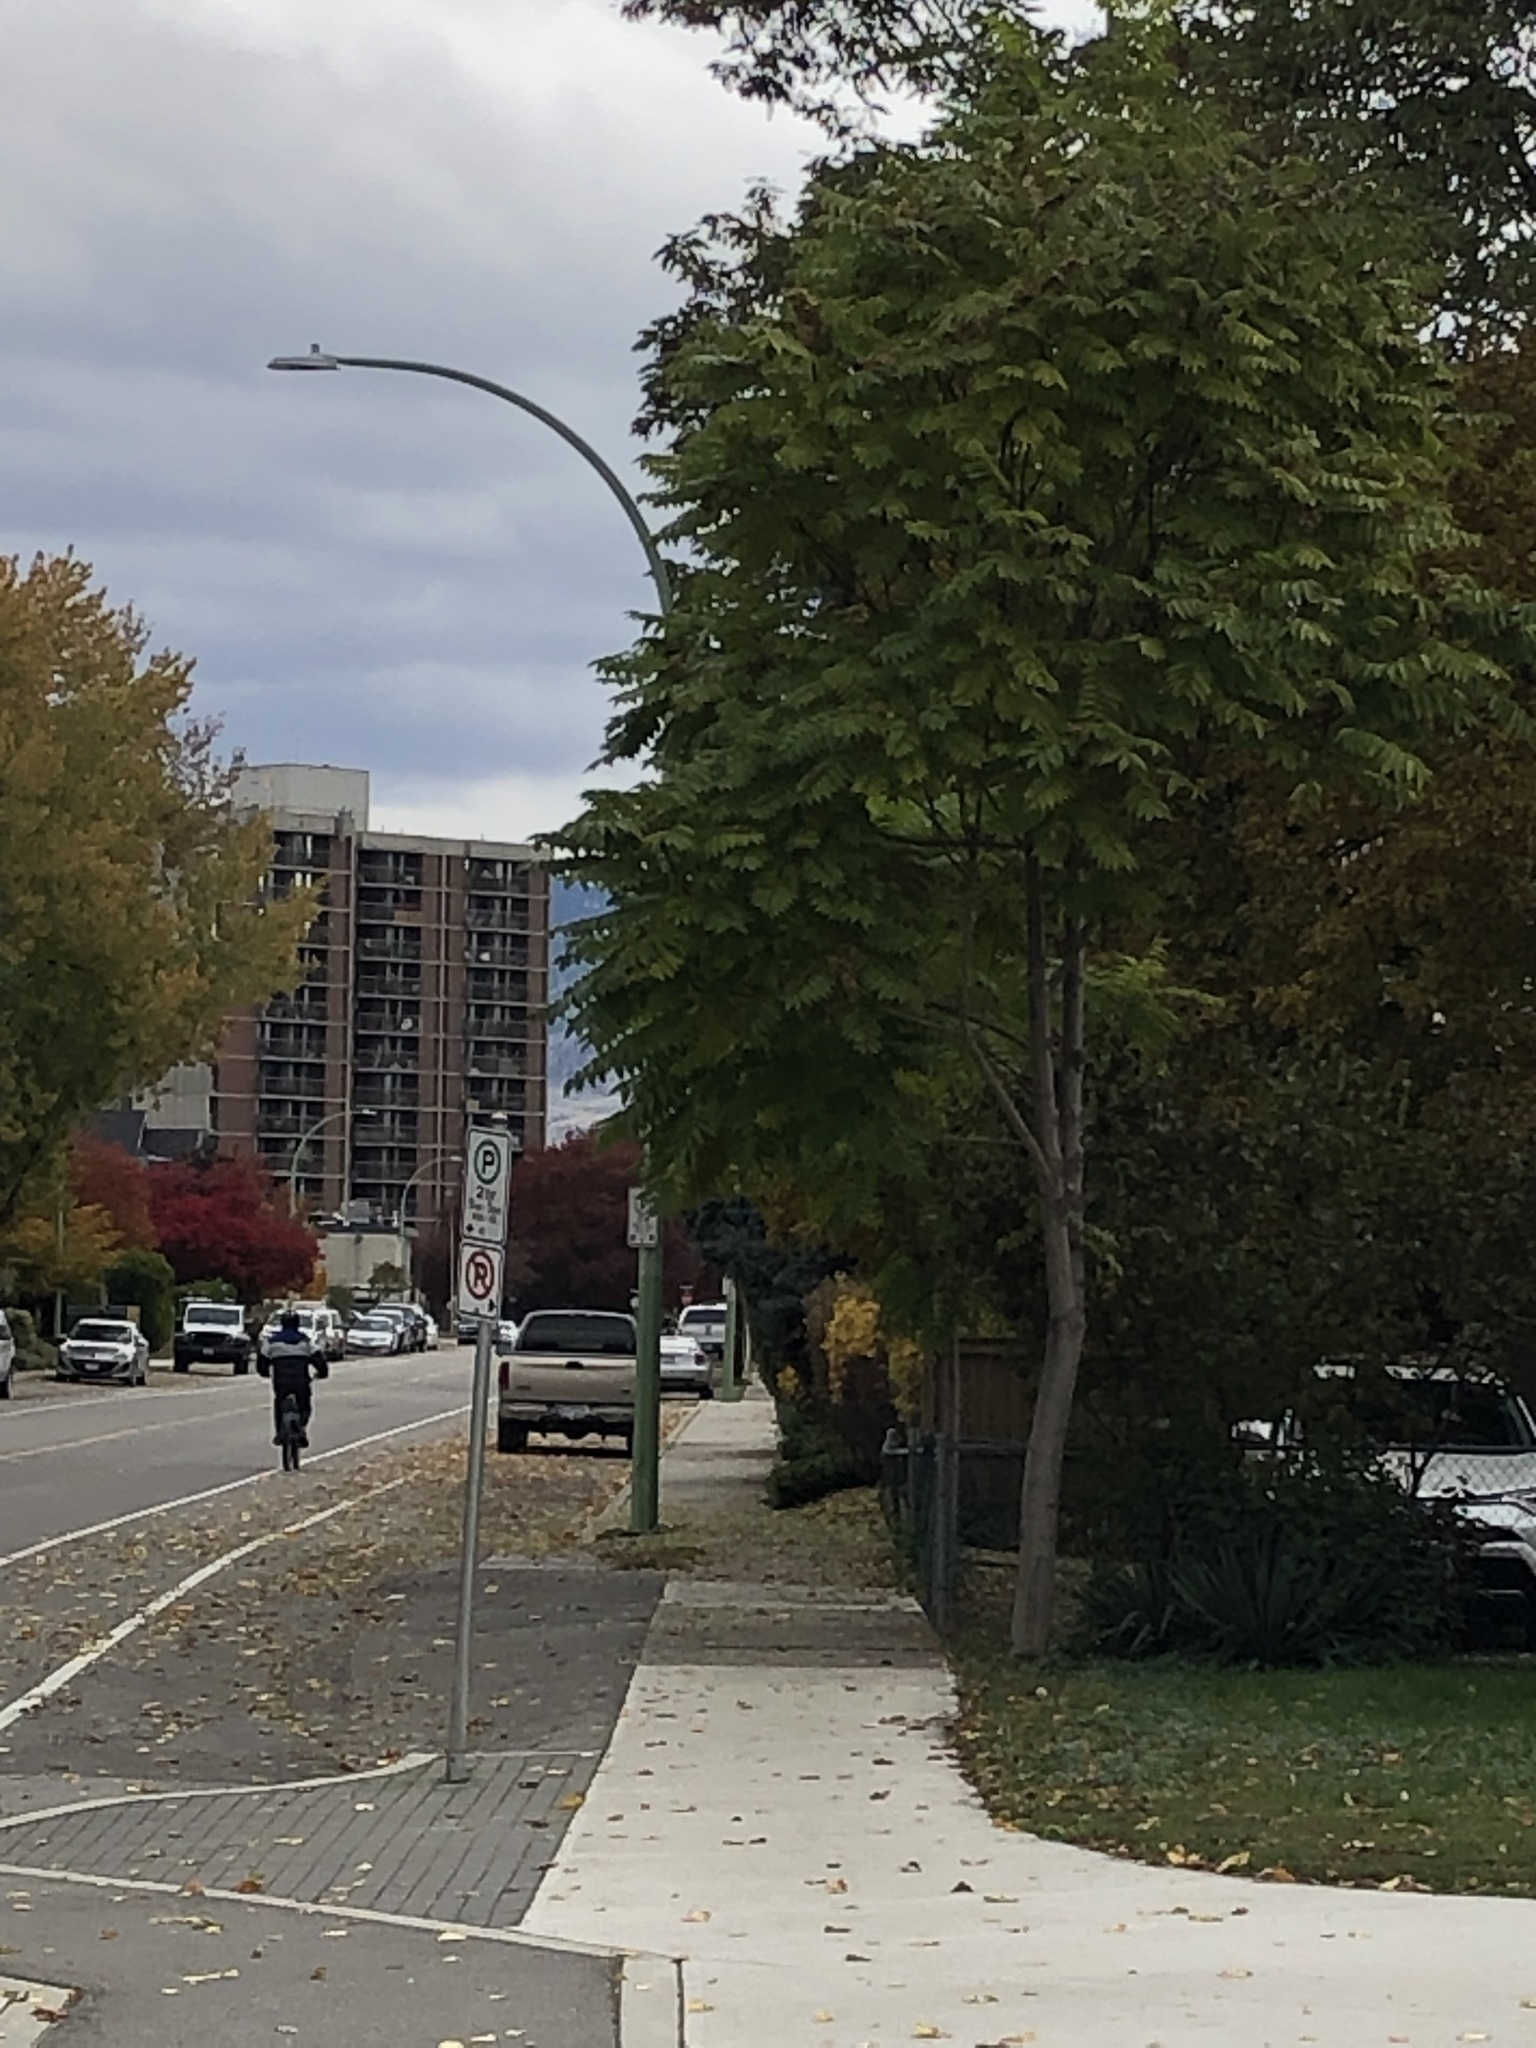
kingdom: Plantae
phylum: Tracheophyta
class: Magnoliopsida
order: Sapindales
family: Simaroubaceae
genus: Ailanthus
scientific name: Ailanthus altissima
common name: Tree-of-heaven
